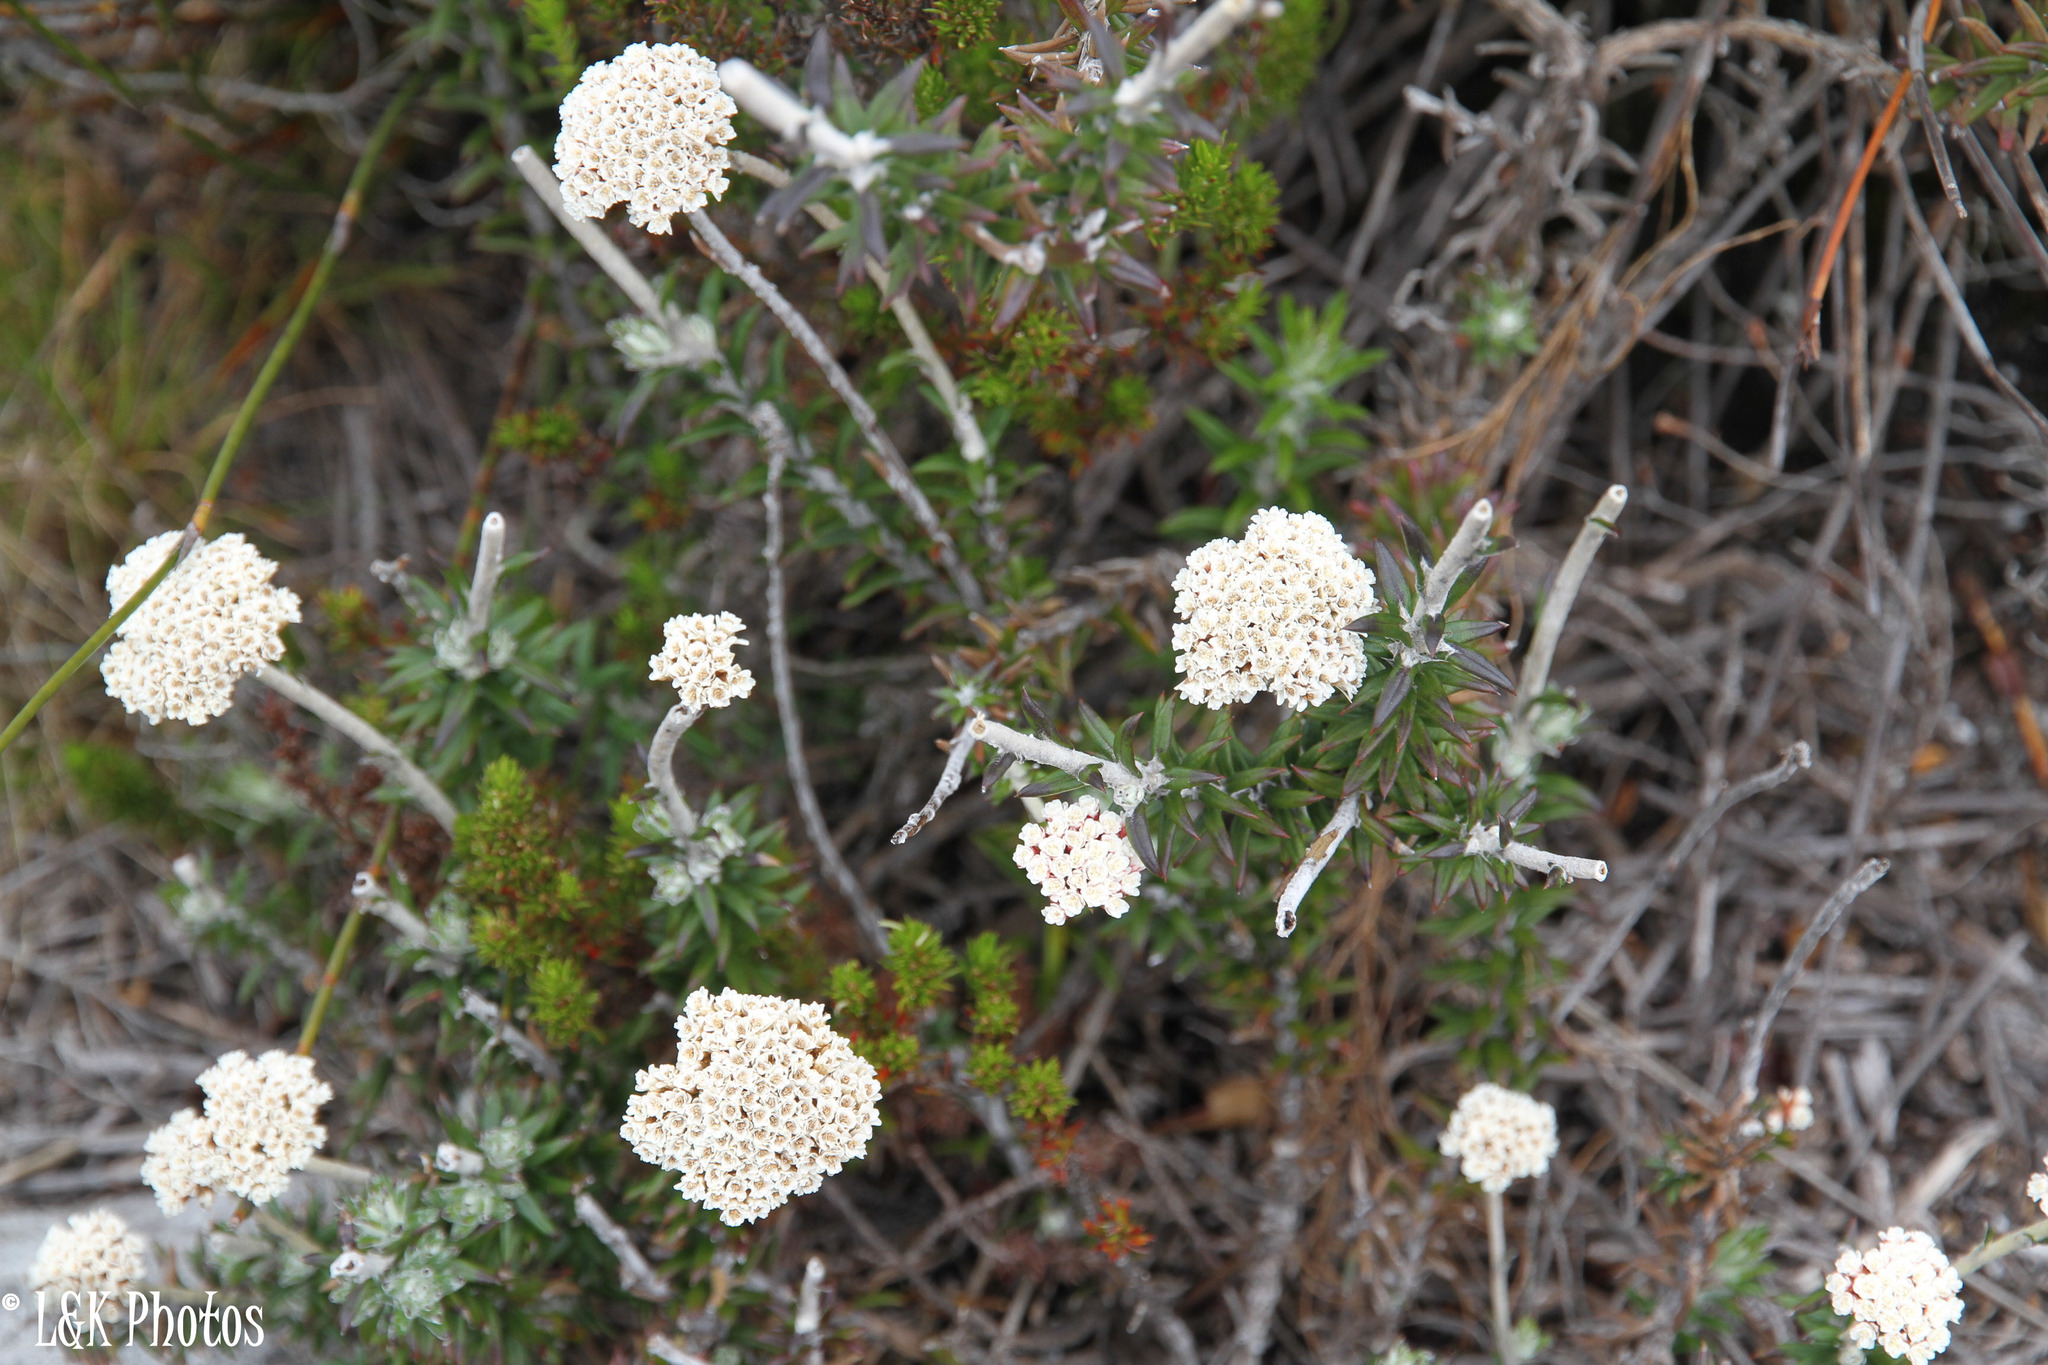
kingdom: Plantae
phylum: Tracheophyta
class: Magnoliopsida
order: Asterales
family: Asteraceae
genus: Anaxeton
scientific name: Anaxeton arborescens
